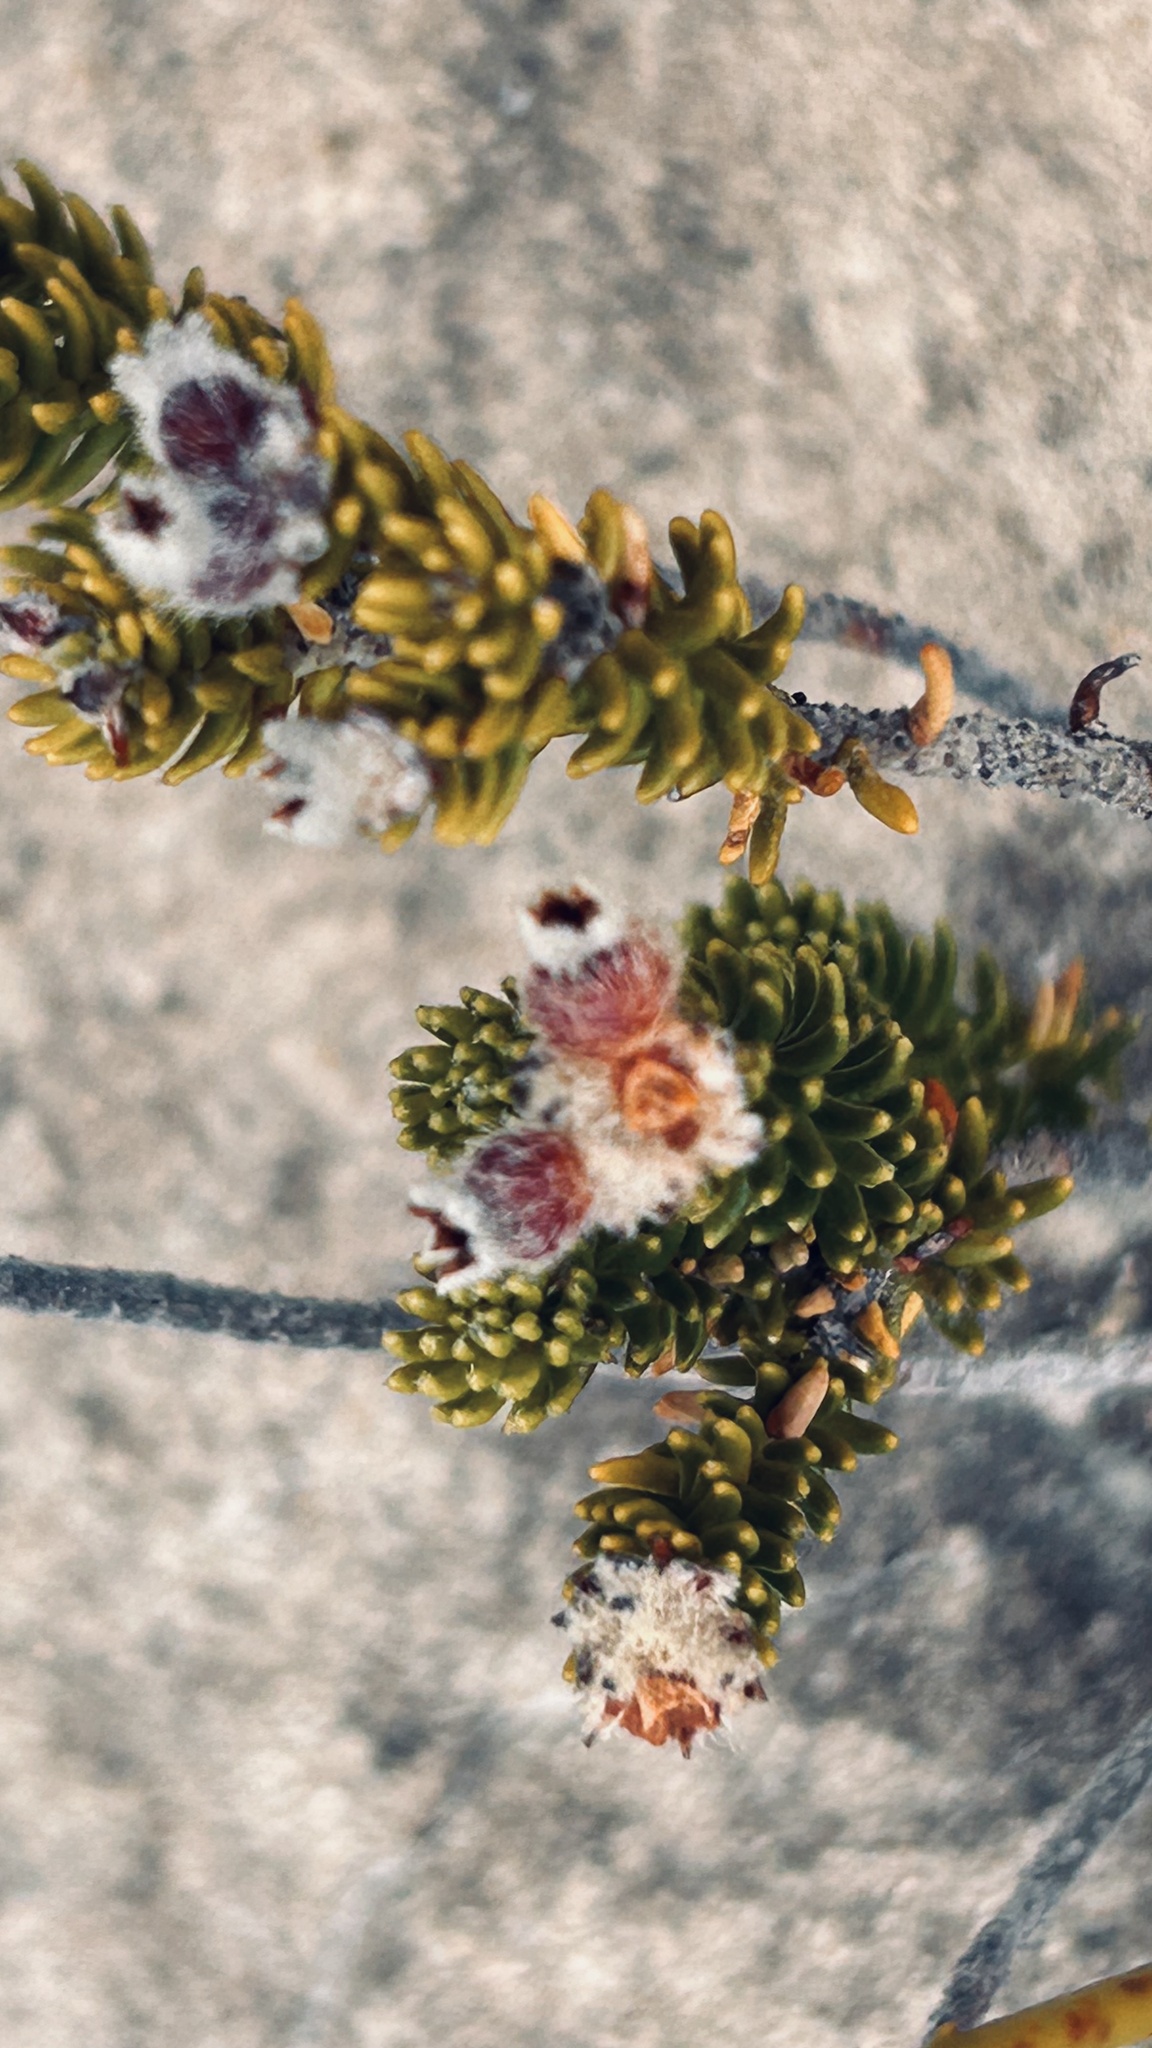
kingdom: Plantae
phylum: Tracheophyta
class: Magnoliopsida
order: Rosales
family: Rhamnaceae
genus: Phylica
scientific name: Phylica ericoides
